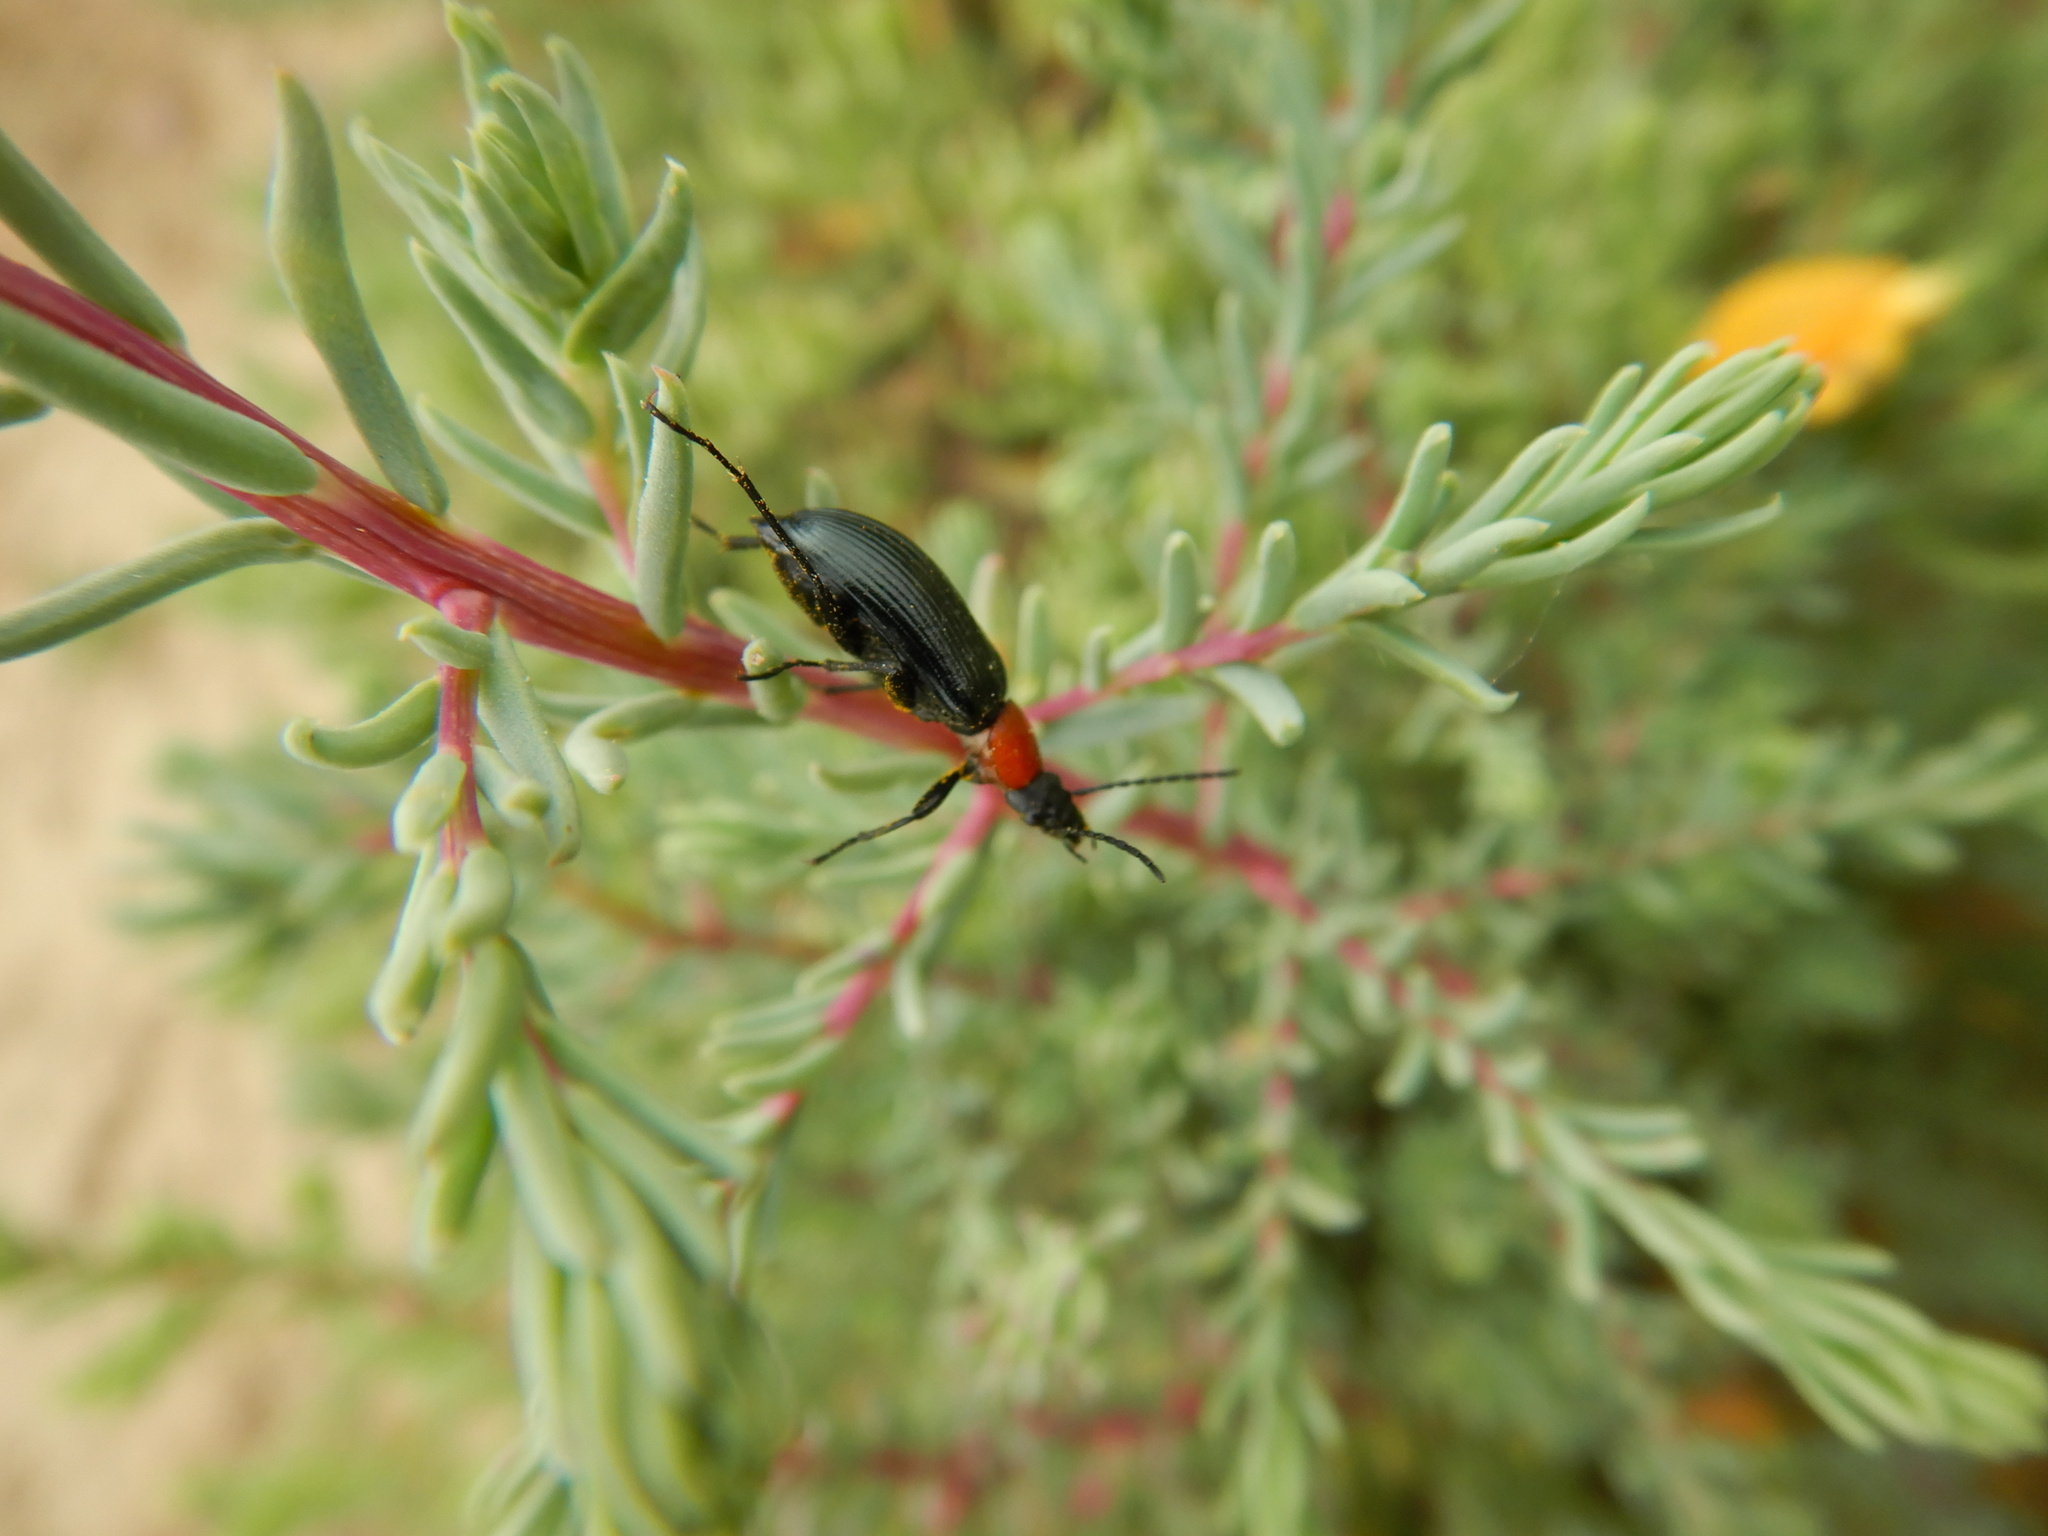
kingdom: Animalia
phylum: Arthropoda
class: Insecta
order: Coleoptera
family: Tenebrionidae
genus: Heliotaurus
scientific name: Heliotaurus ruficollis
